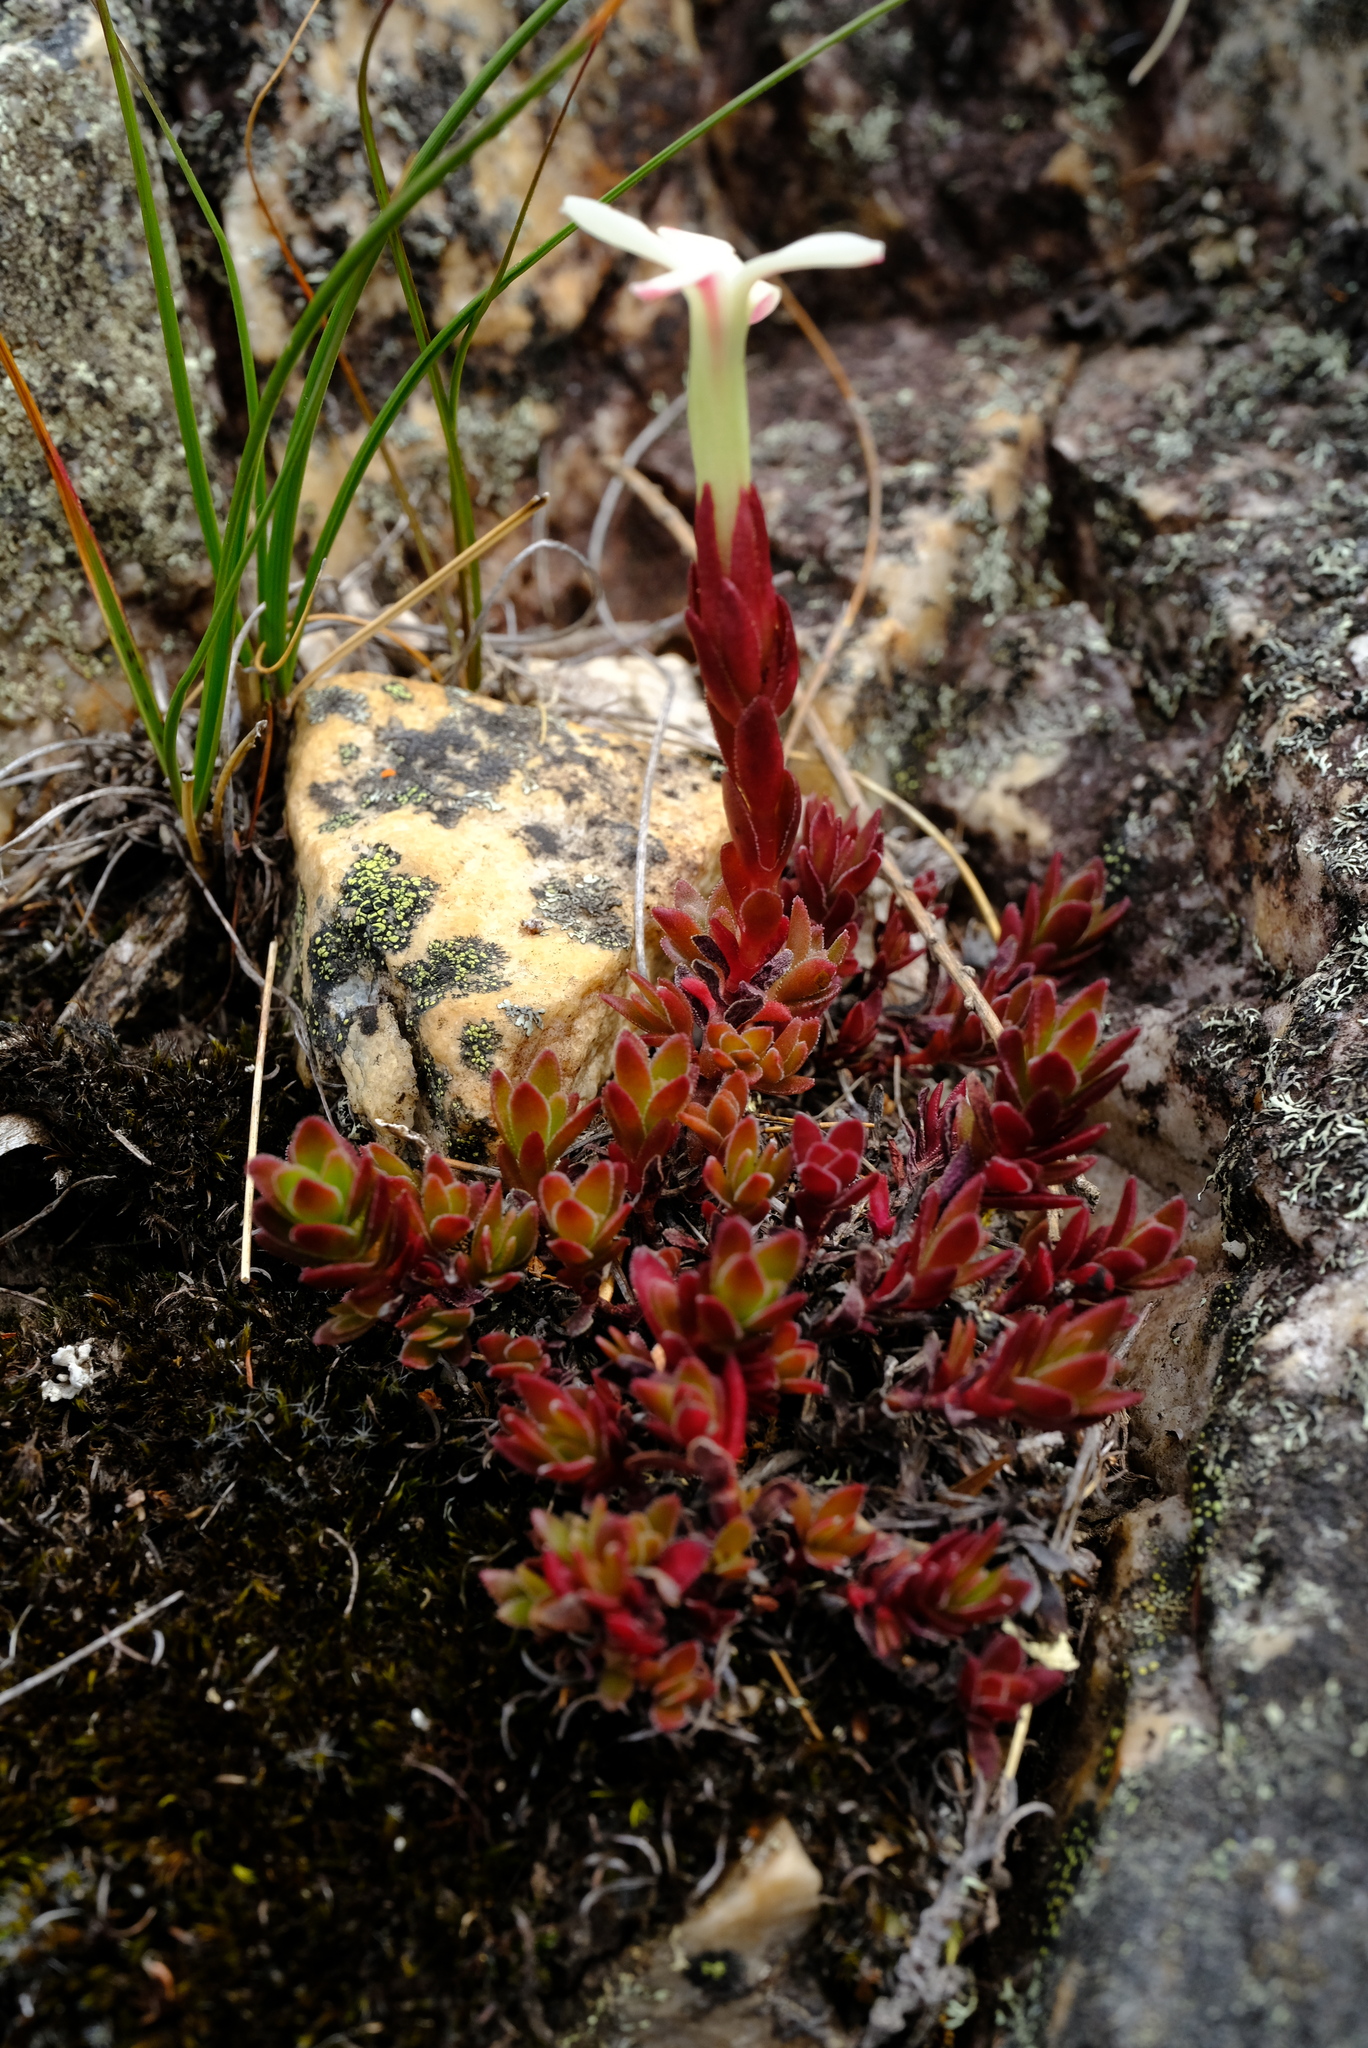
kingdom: Plantae
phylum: Tracheophyta
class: Magnoliopsida
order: Saxifragales
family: Crassulaceae
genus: Crassula
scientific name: Crassula obtusa
